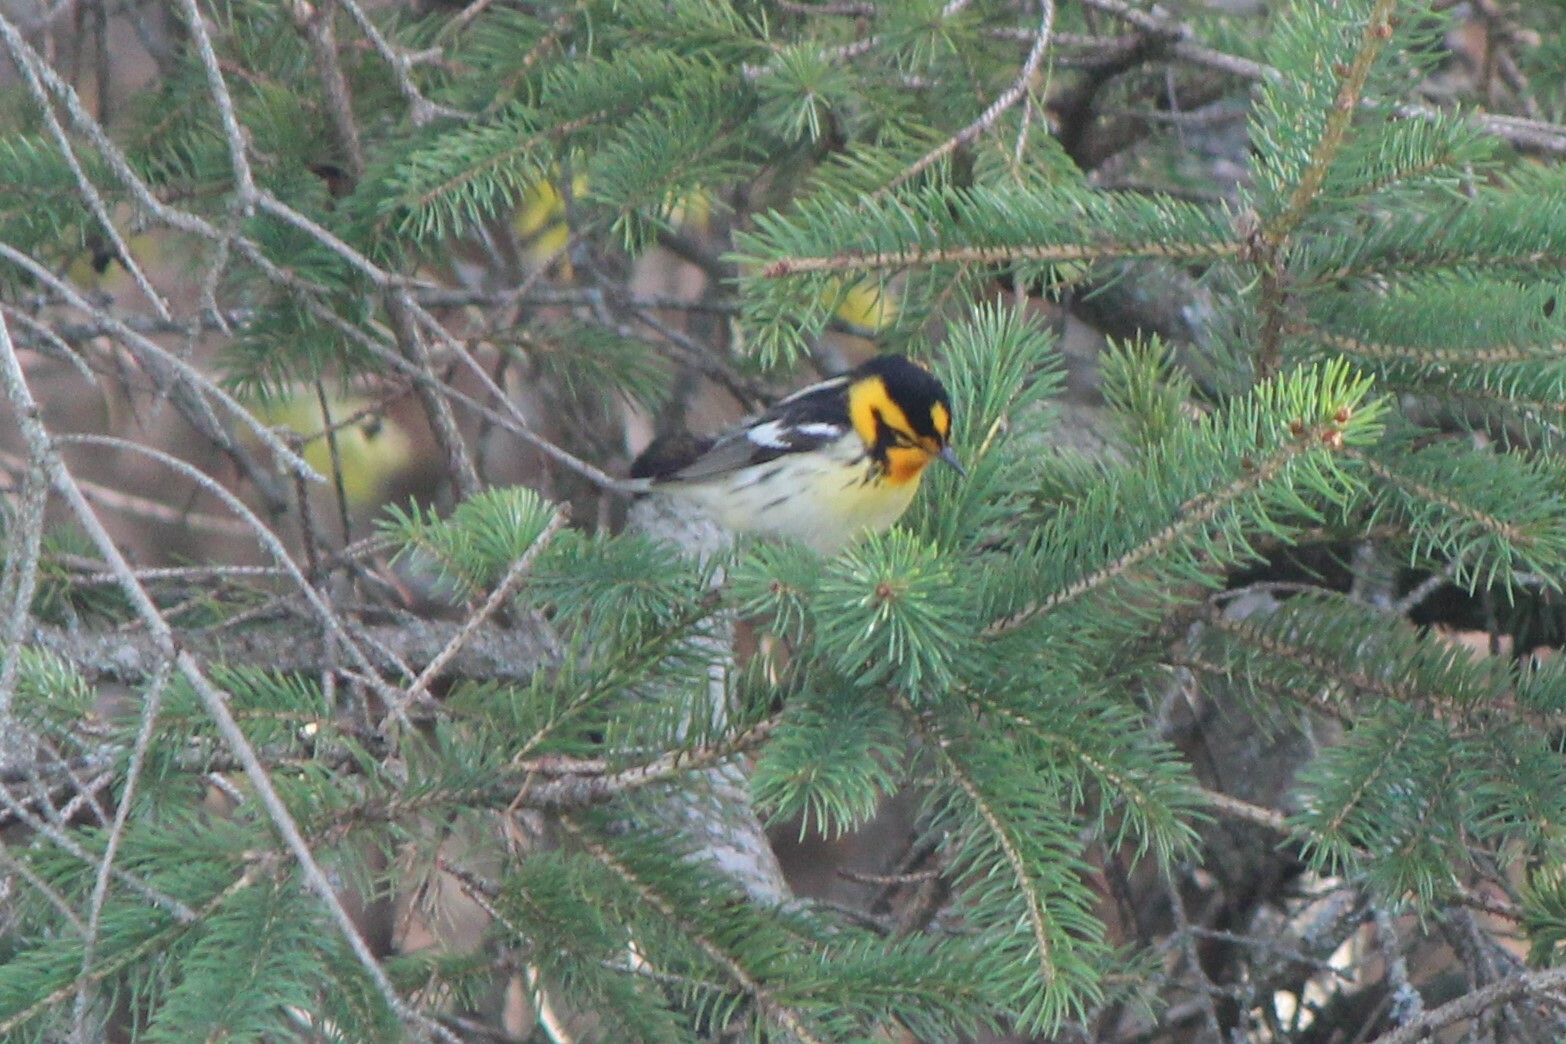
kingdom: Animalia
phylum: Chordata
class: Aves
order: Passeriformes
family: Parulidae
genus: Setophaga
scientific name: Setophaga fusca
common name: Blackburnian warbler
